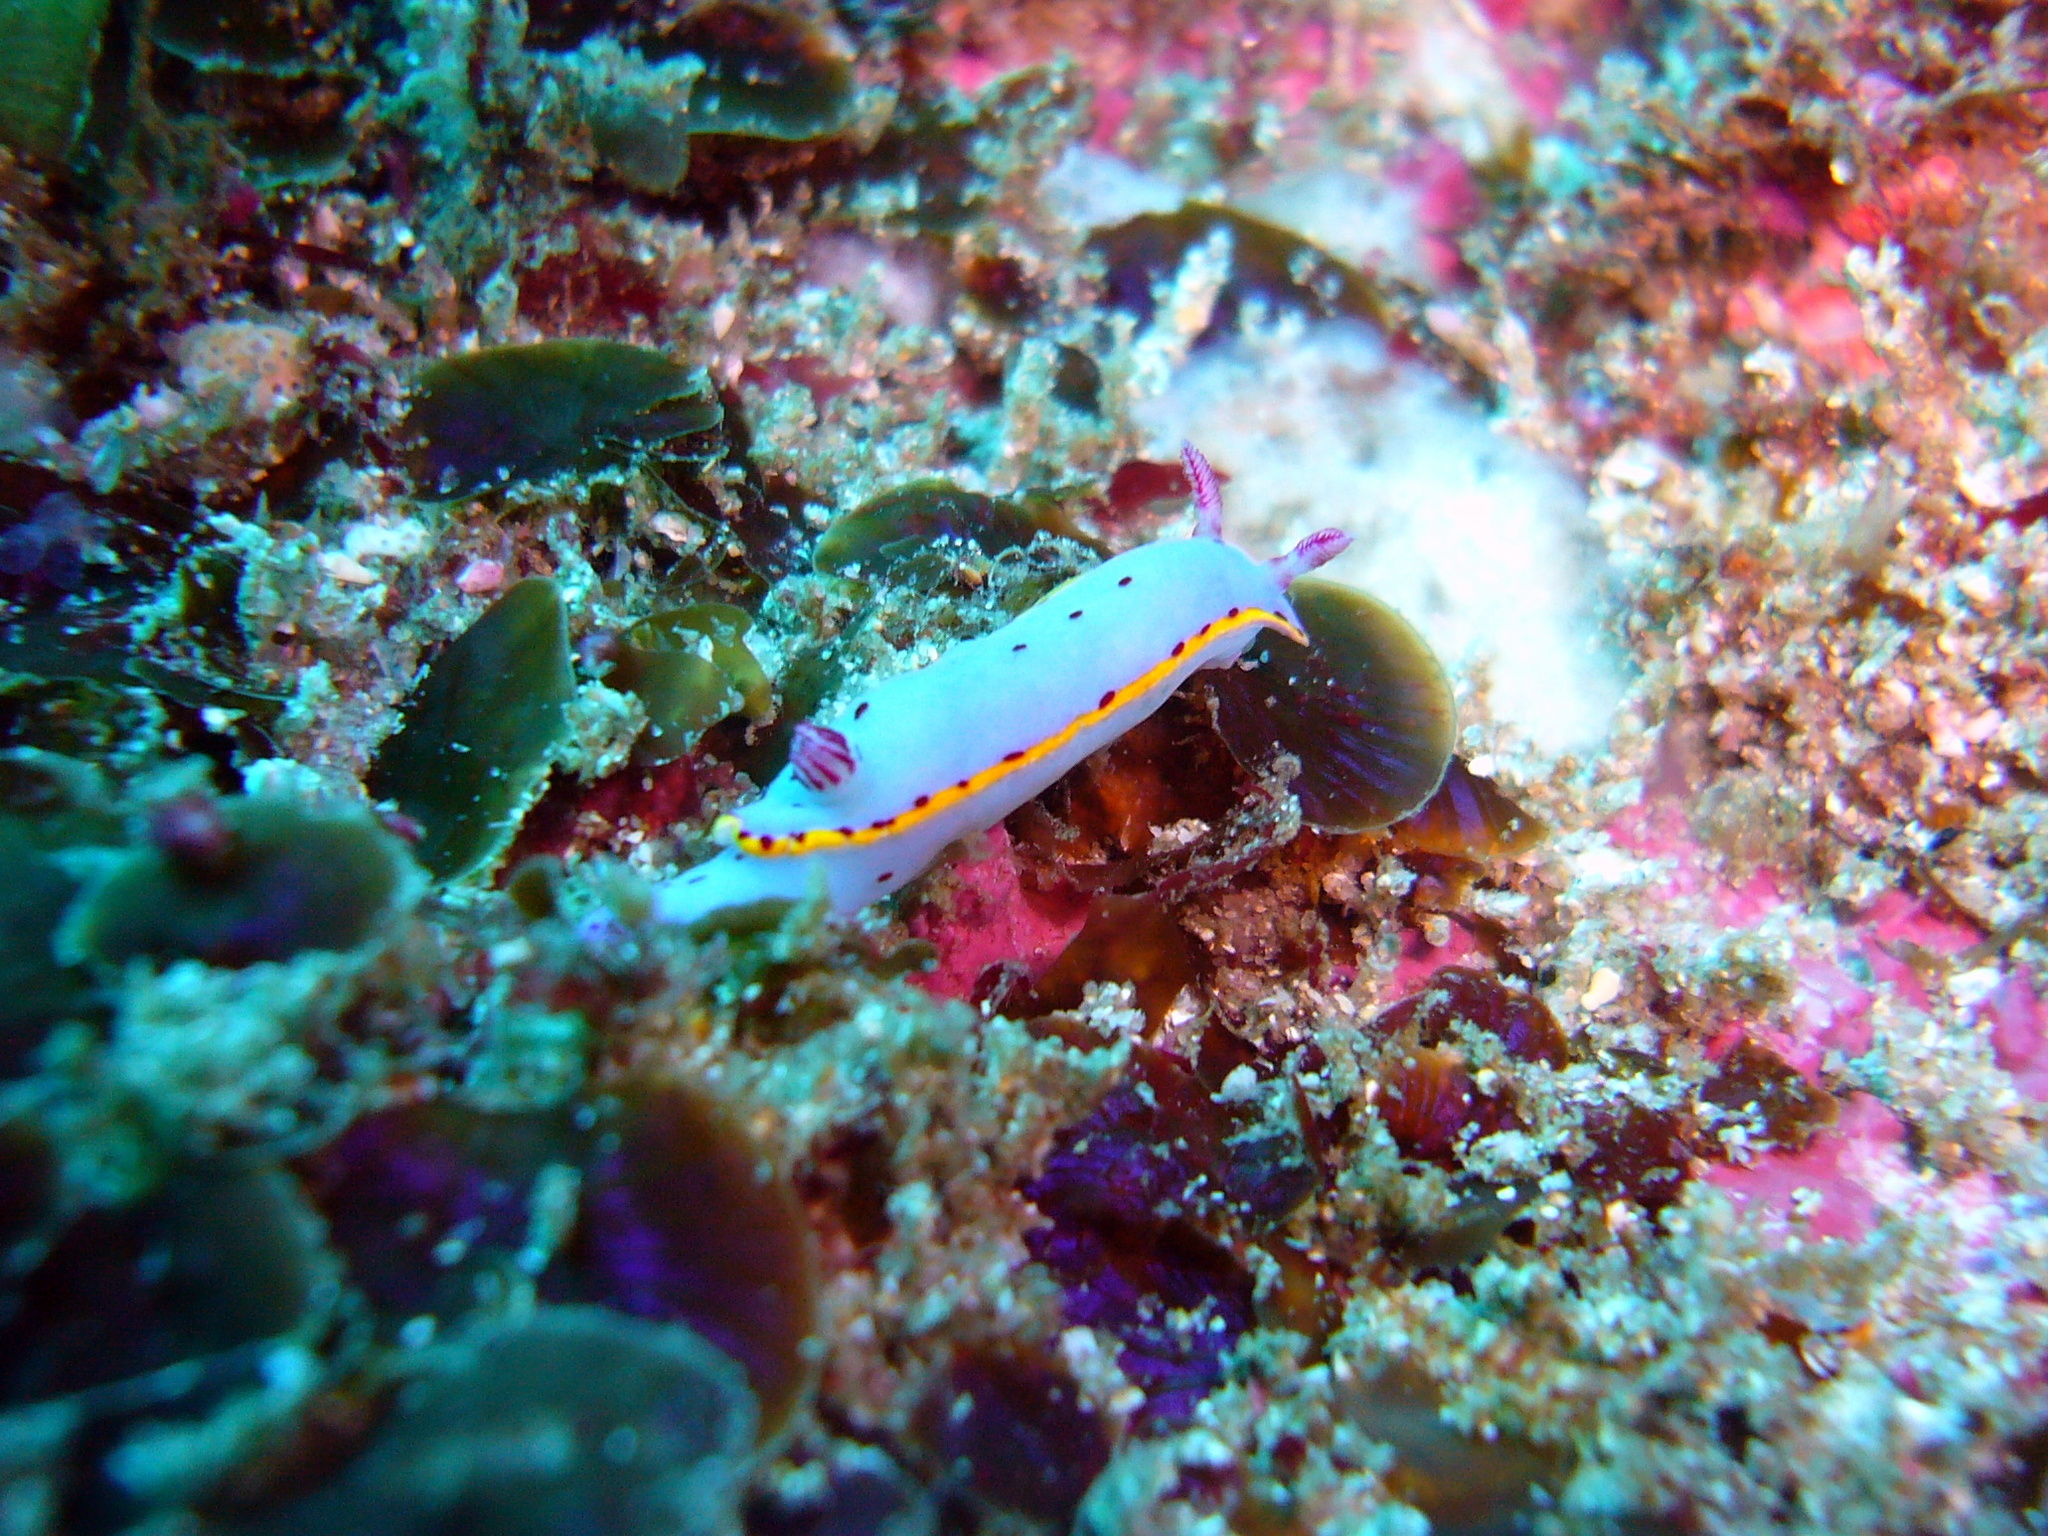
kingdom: Animalia
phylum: Mollusca
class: Gastropoda
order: Nudibranchia
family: Chromodorididae
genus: Hypselodoris
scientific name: Hypselodoris bennetti
